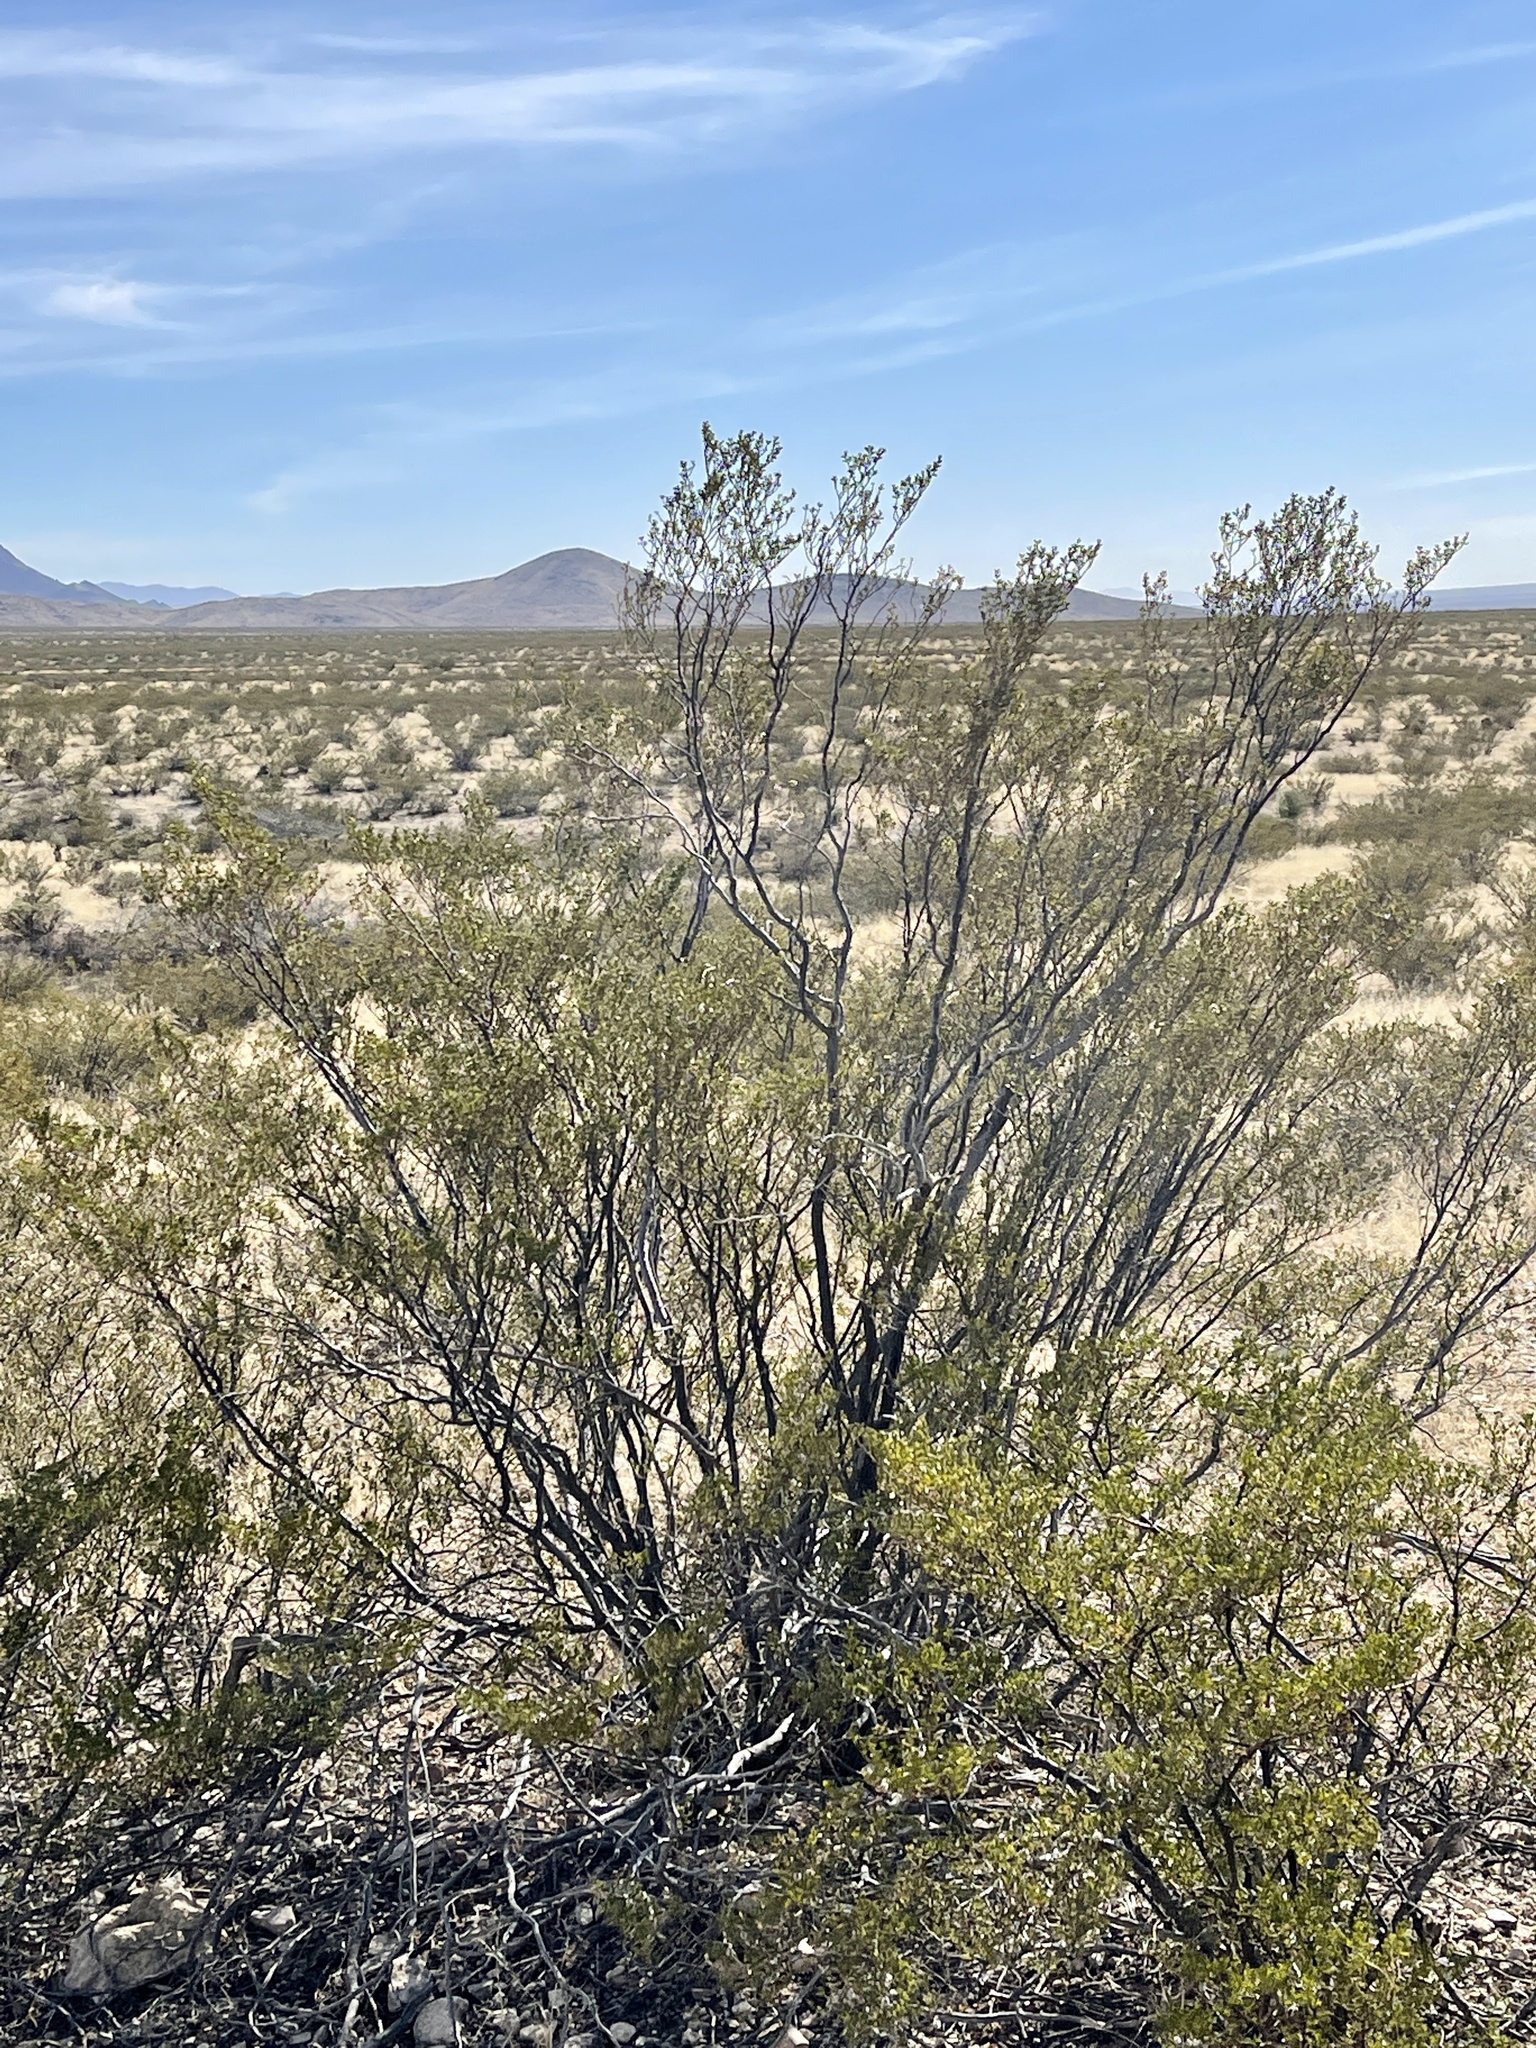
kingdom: Plantae
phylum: Tracheophyta
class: Magnoliopsida
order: Zygophyllales
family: Zygophyllaceae
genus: Larrea
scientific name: Larrea tridentata
